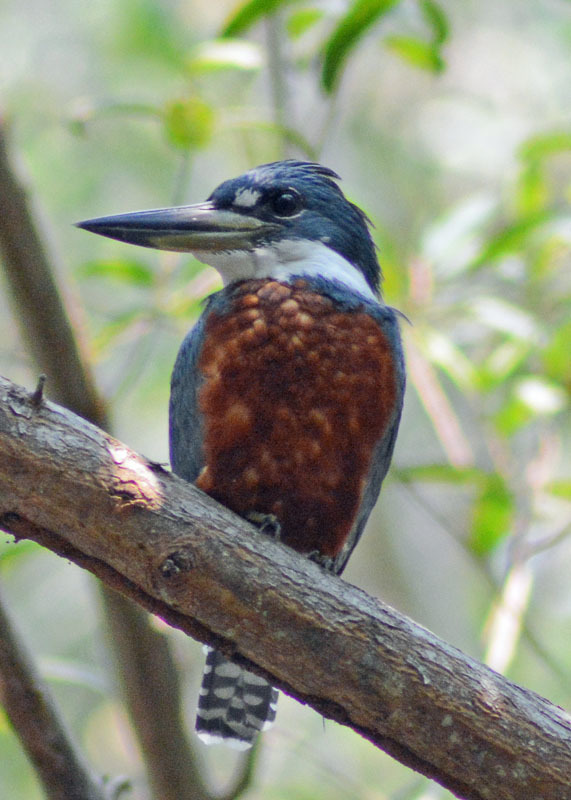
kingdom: Animalia
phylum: Chordata
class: Aves
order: Coraciiformes
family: Alcedinidae
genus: Megaceryle
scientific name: Megaceryle torquata
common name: Ringed kingfisher
